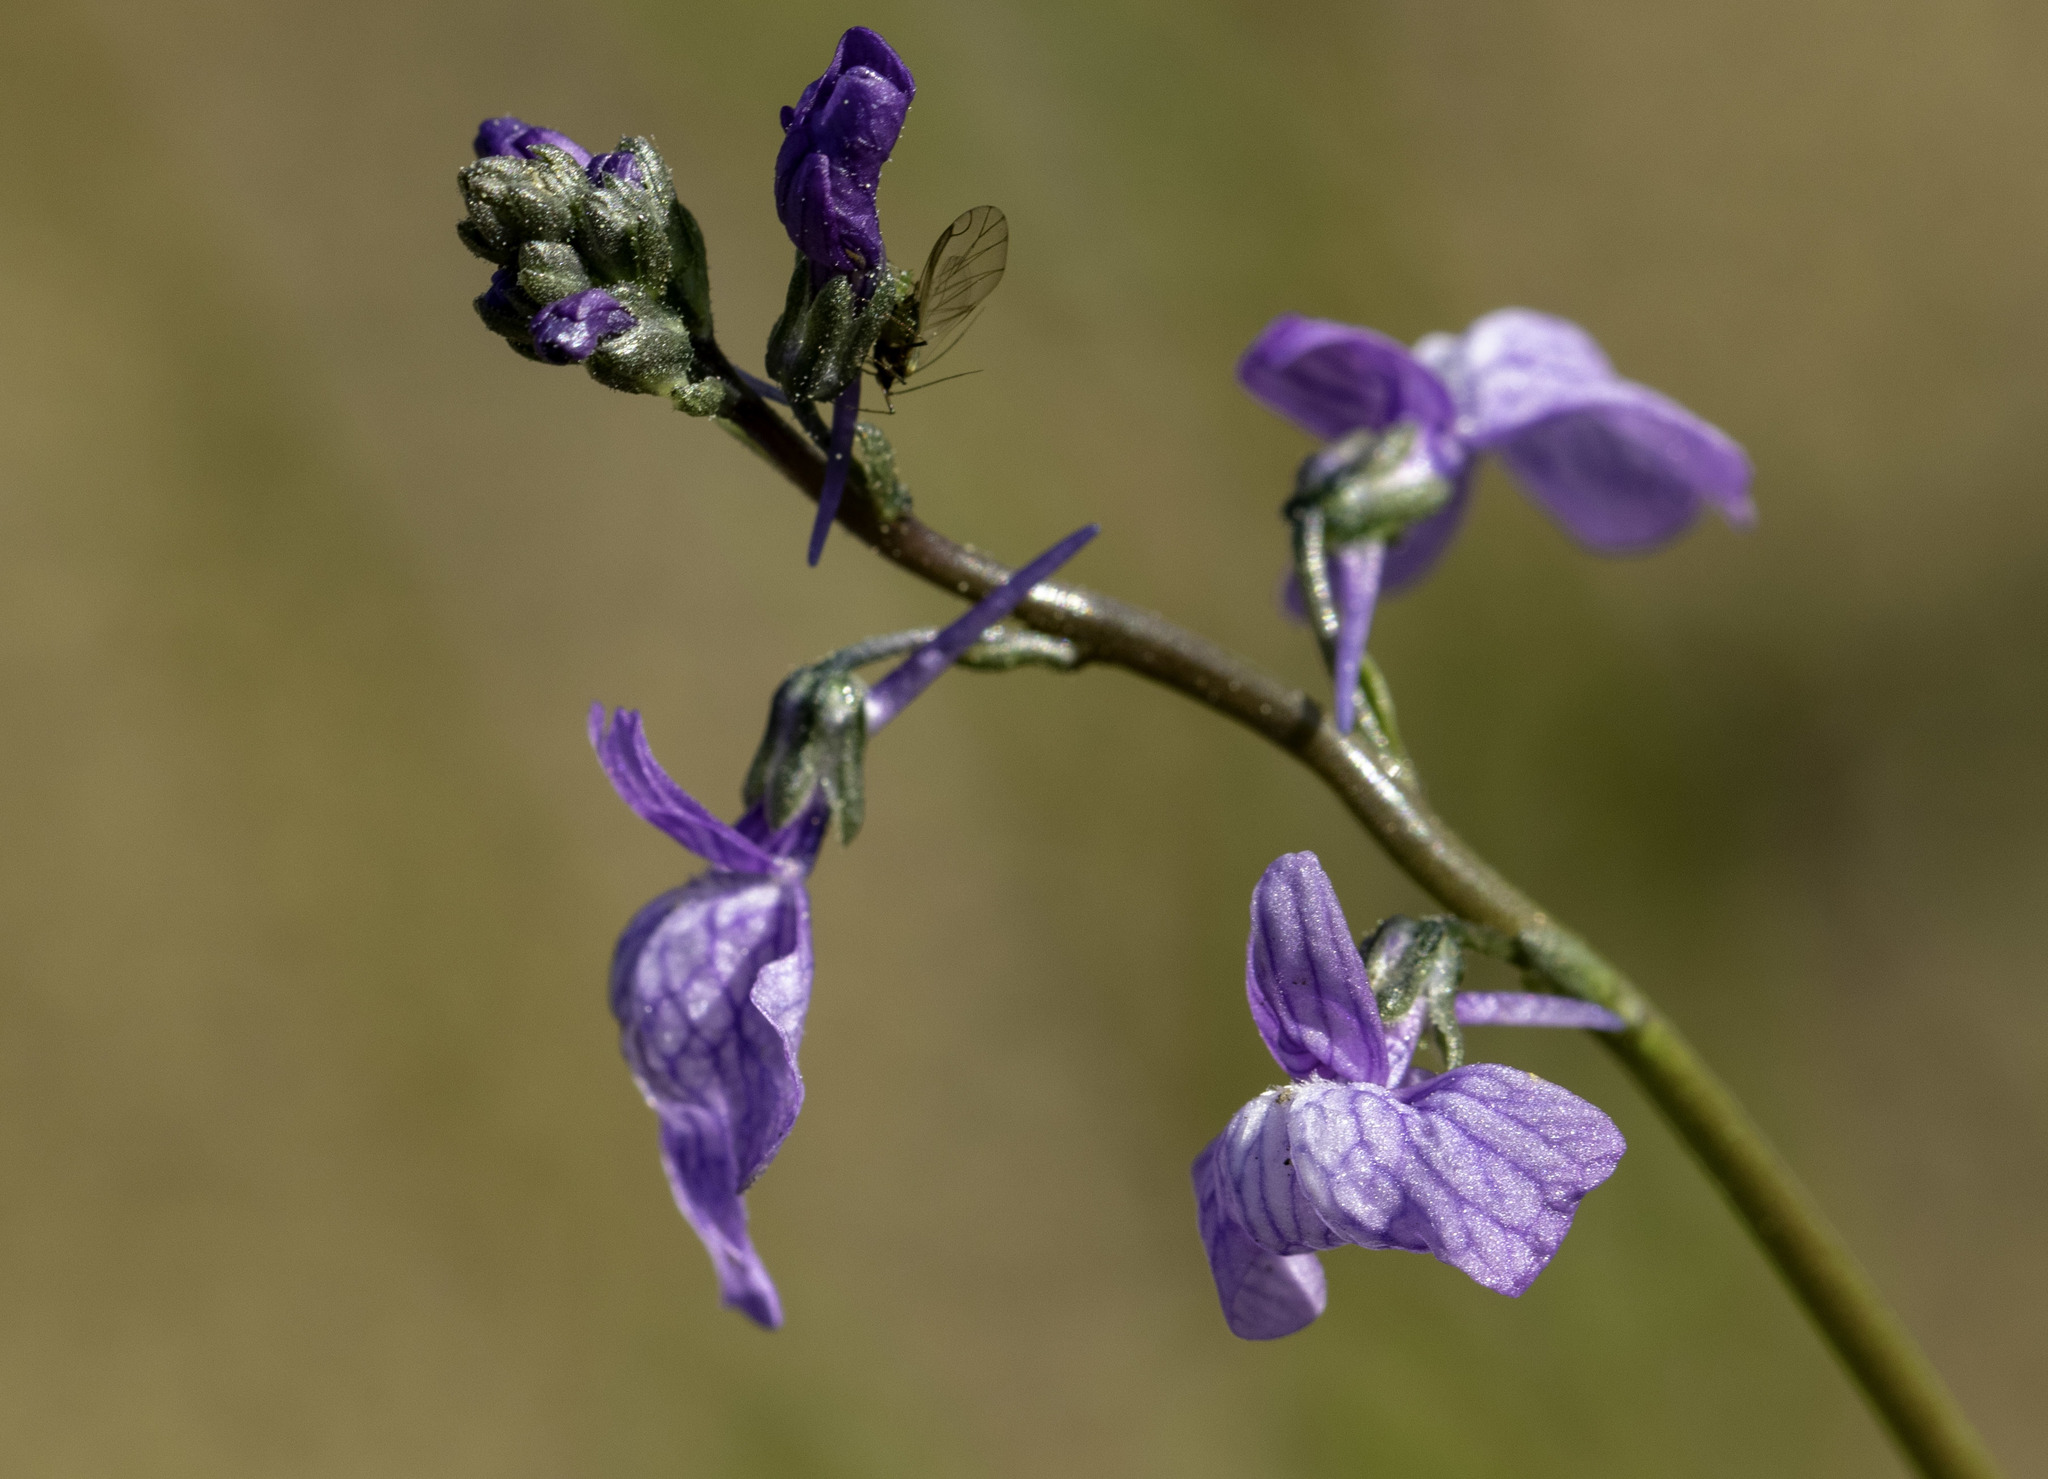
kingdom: Plantae
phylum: Tracheophyta
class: Magnoliopsida
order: Lamiales
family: Plantaginaceae
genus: Nuttallanthus
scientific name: Nuttallanthus texanus
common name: Texas toadflax
